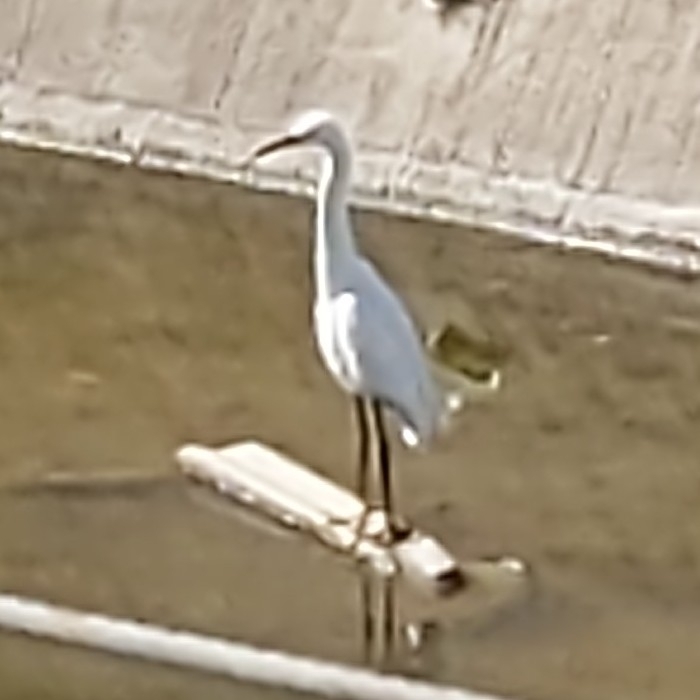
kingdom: Animalia
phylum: Chordata
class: Aves
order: Pelecaniformes
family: Ardeidae
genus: Egretta
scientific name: Egretta thula
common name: Snowy egret
